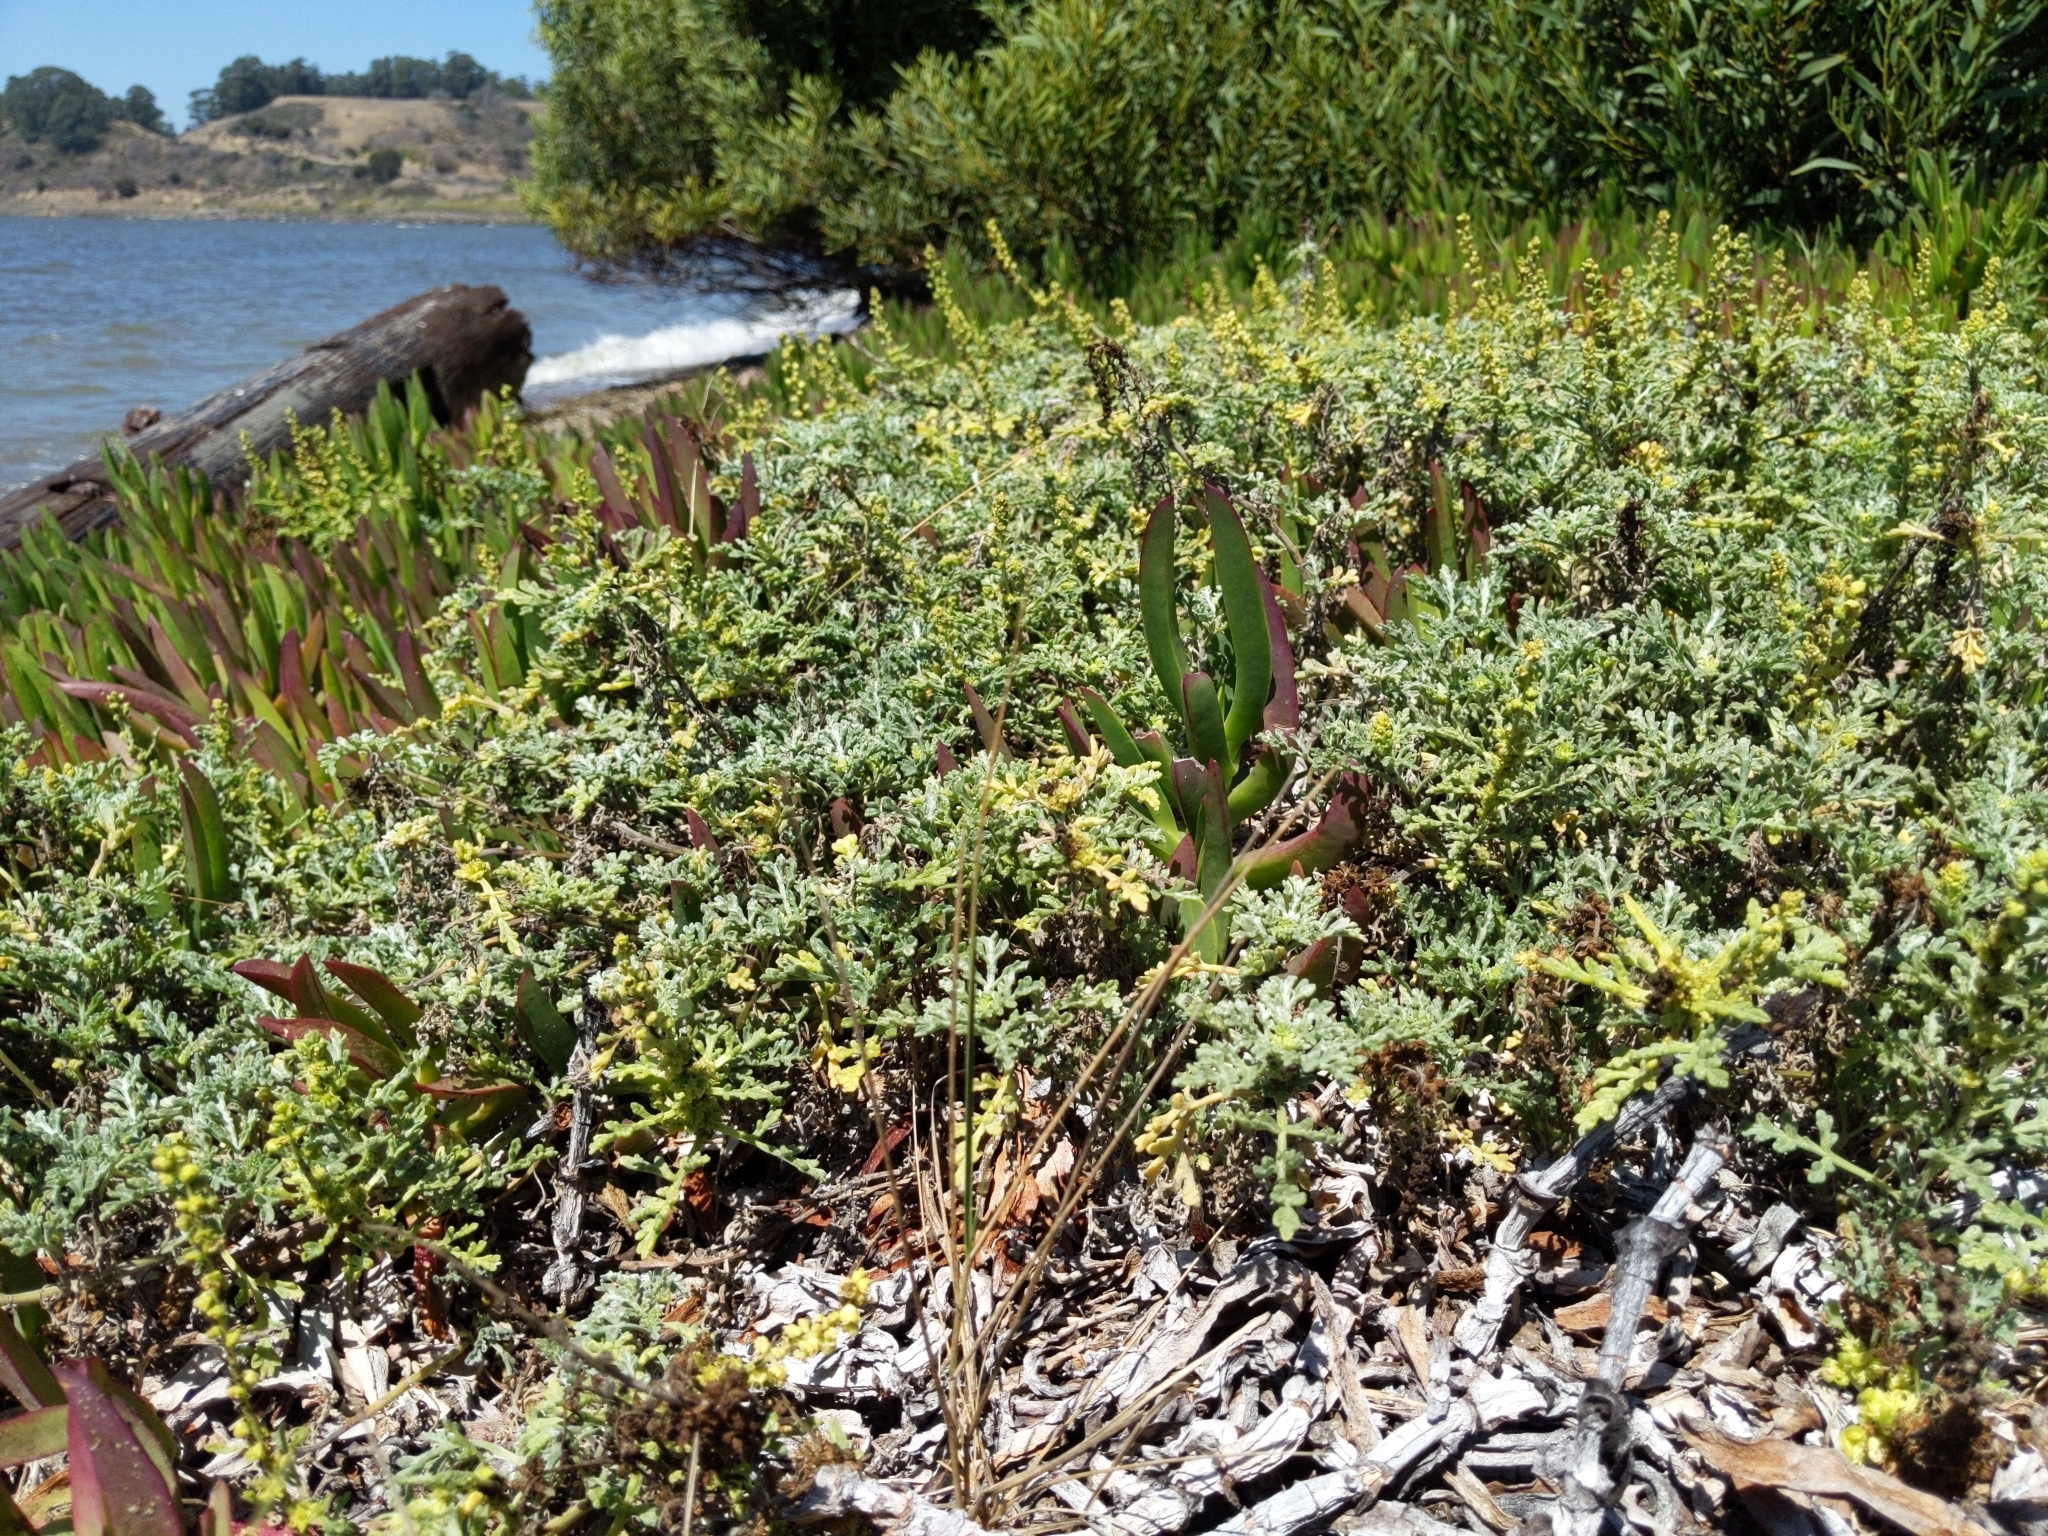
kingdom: Plantae
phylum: Tracheophyta
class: Magnoliopsida
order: Asterales
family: Asteraceae
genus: Ambrosia
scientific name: Ambrosia chamissonis
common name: Beachbur
